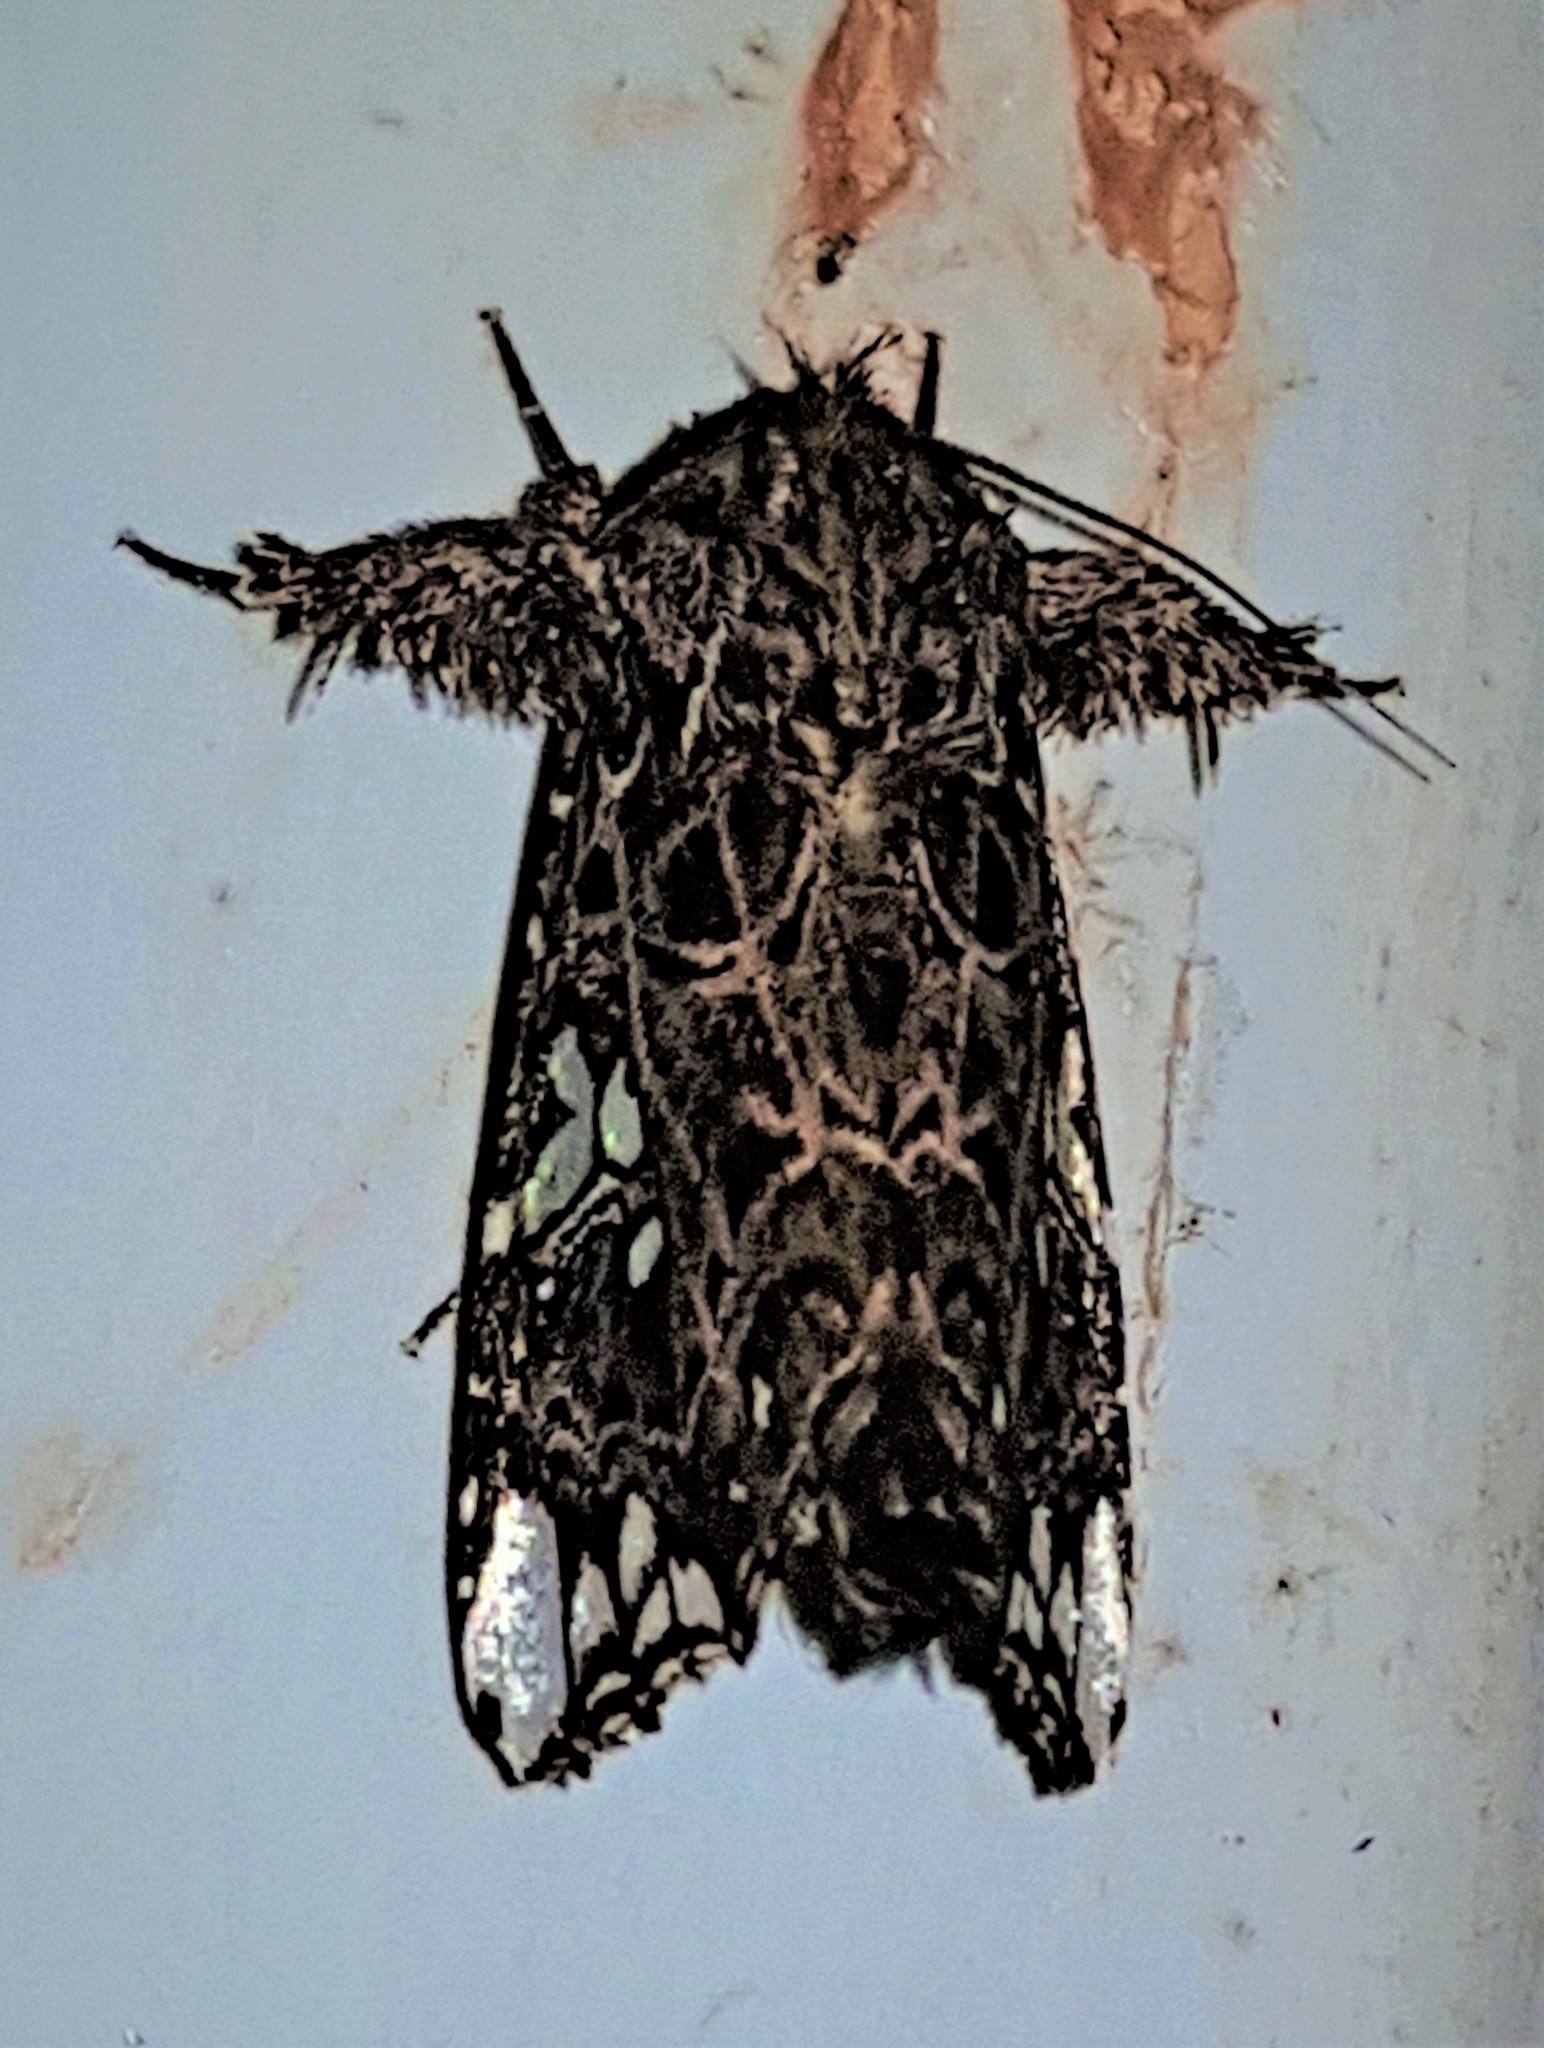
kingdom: Animalia
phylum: Arthropoda
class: Insecta
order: Lepidoptera
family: Noctuidae
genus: Argyrosticta
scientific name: Argyrosticta meres
